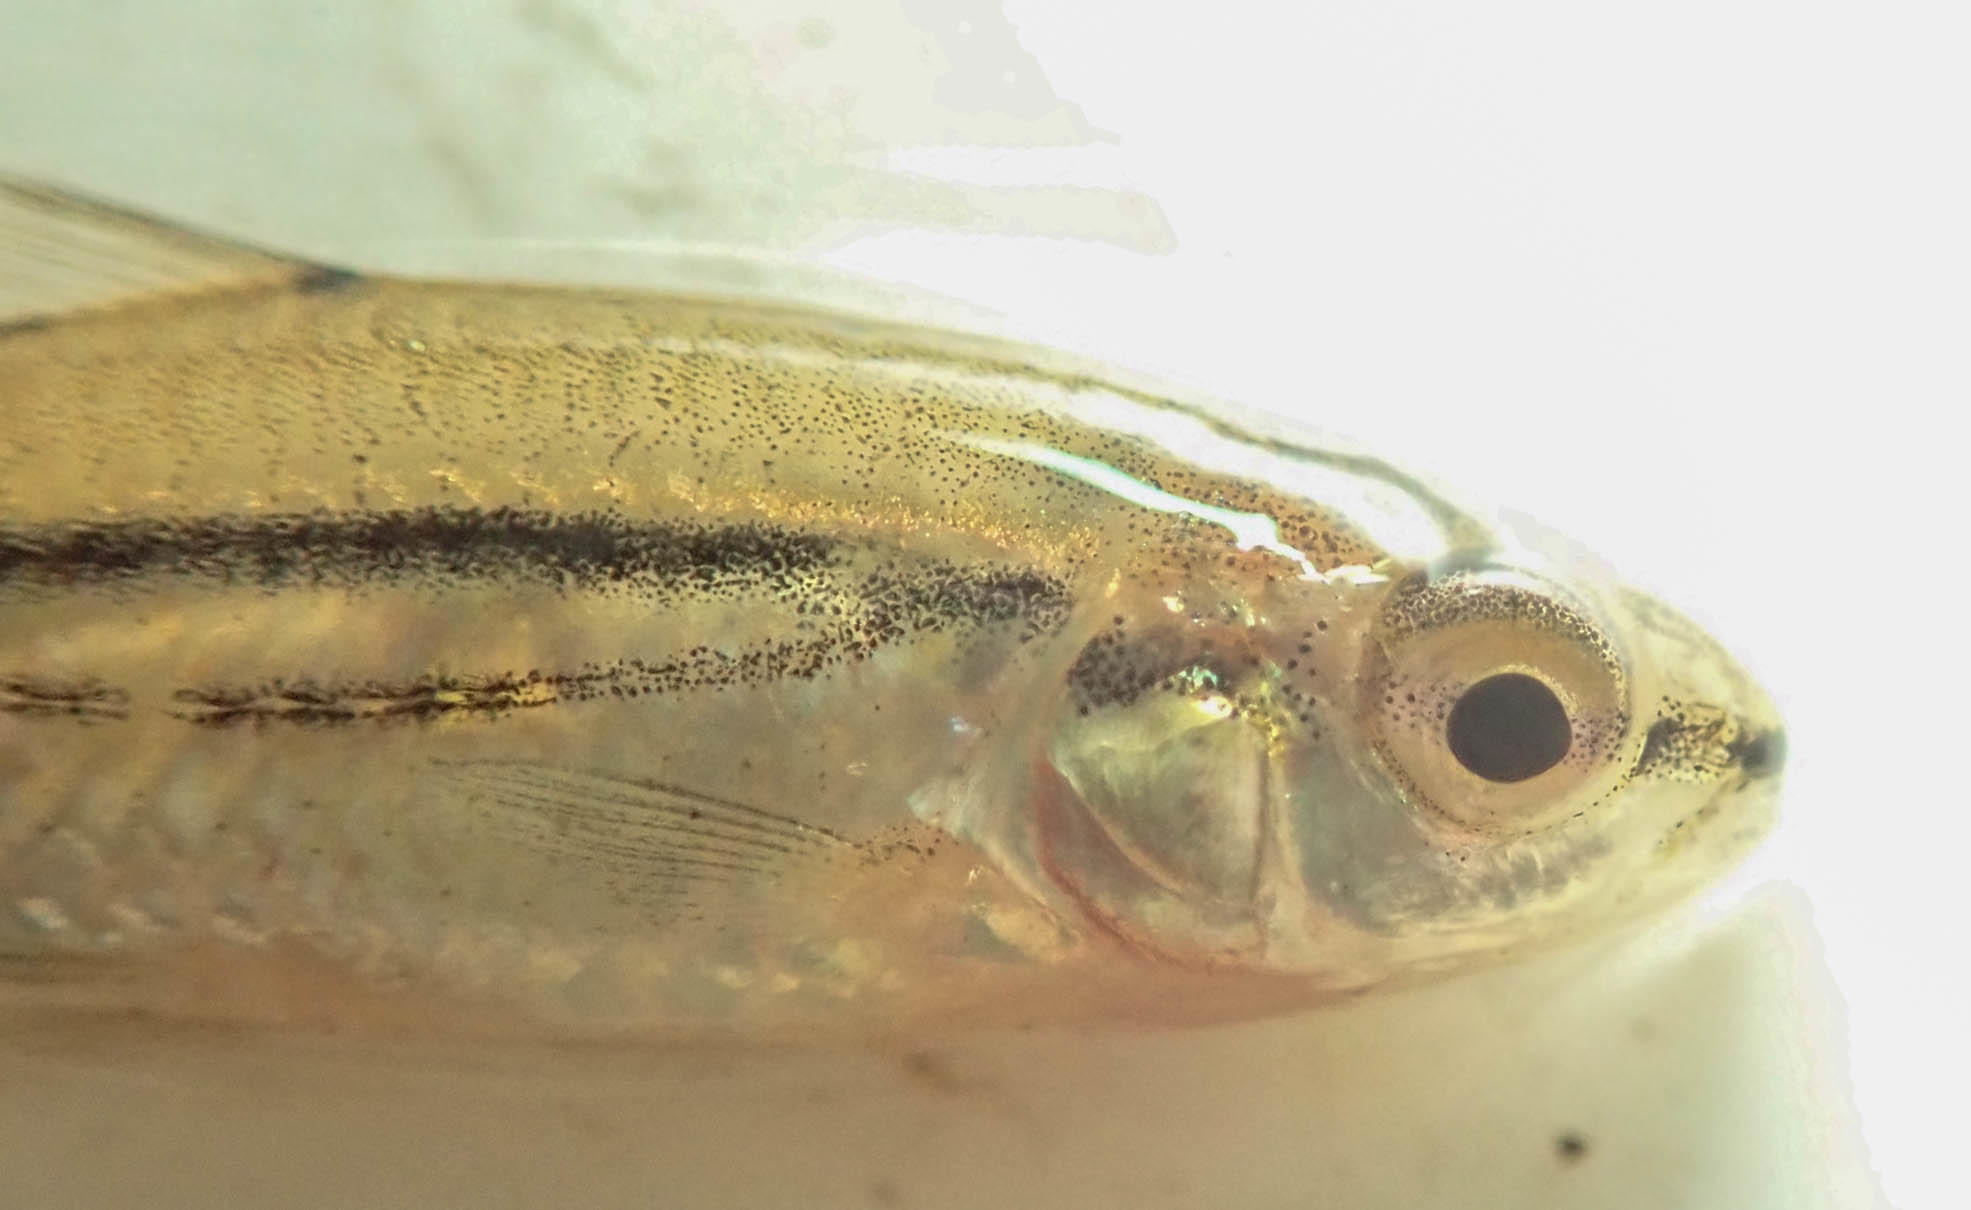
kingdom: Animalia
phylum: Chordata
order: Cypriniformes
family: Cyprinidae
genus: Enteromius
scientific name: Enteromius bifrenatus
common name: Hyphen barb
